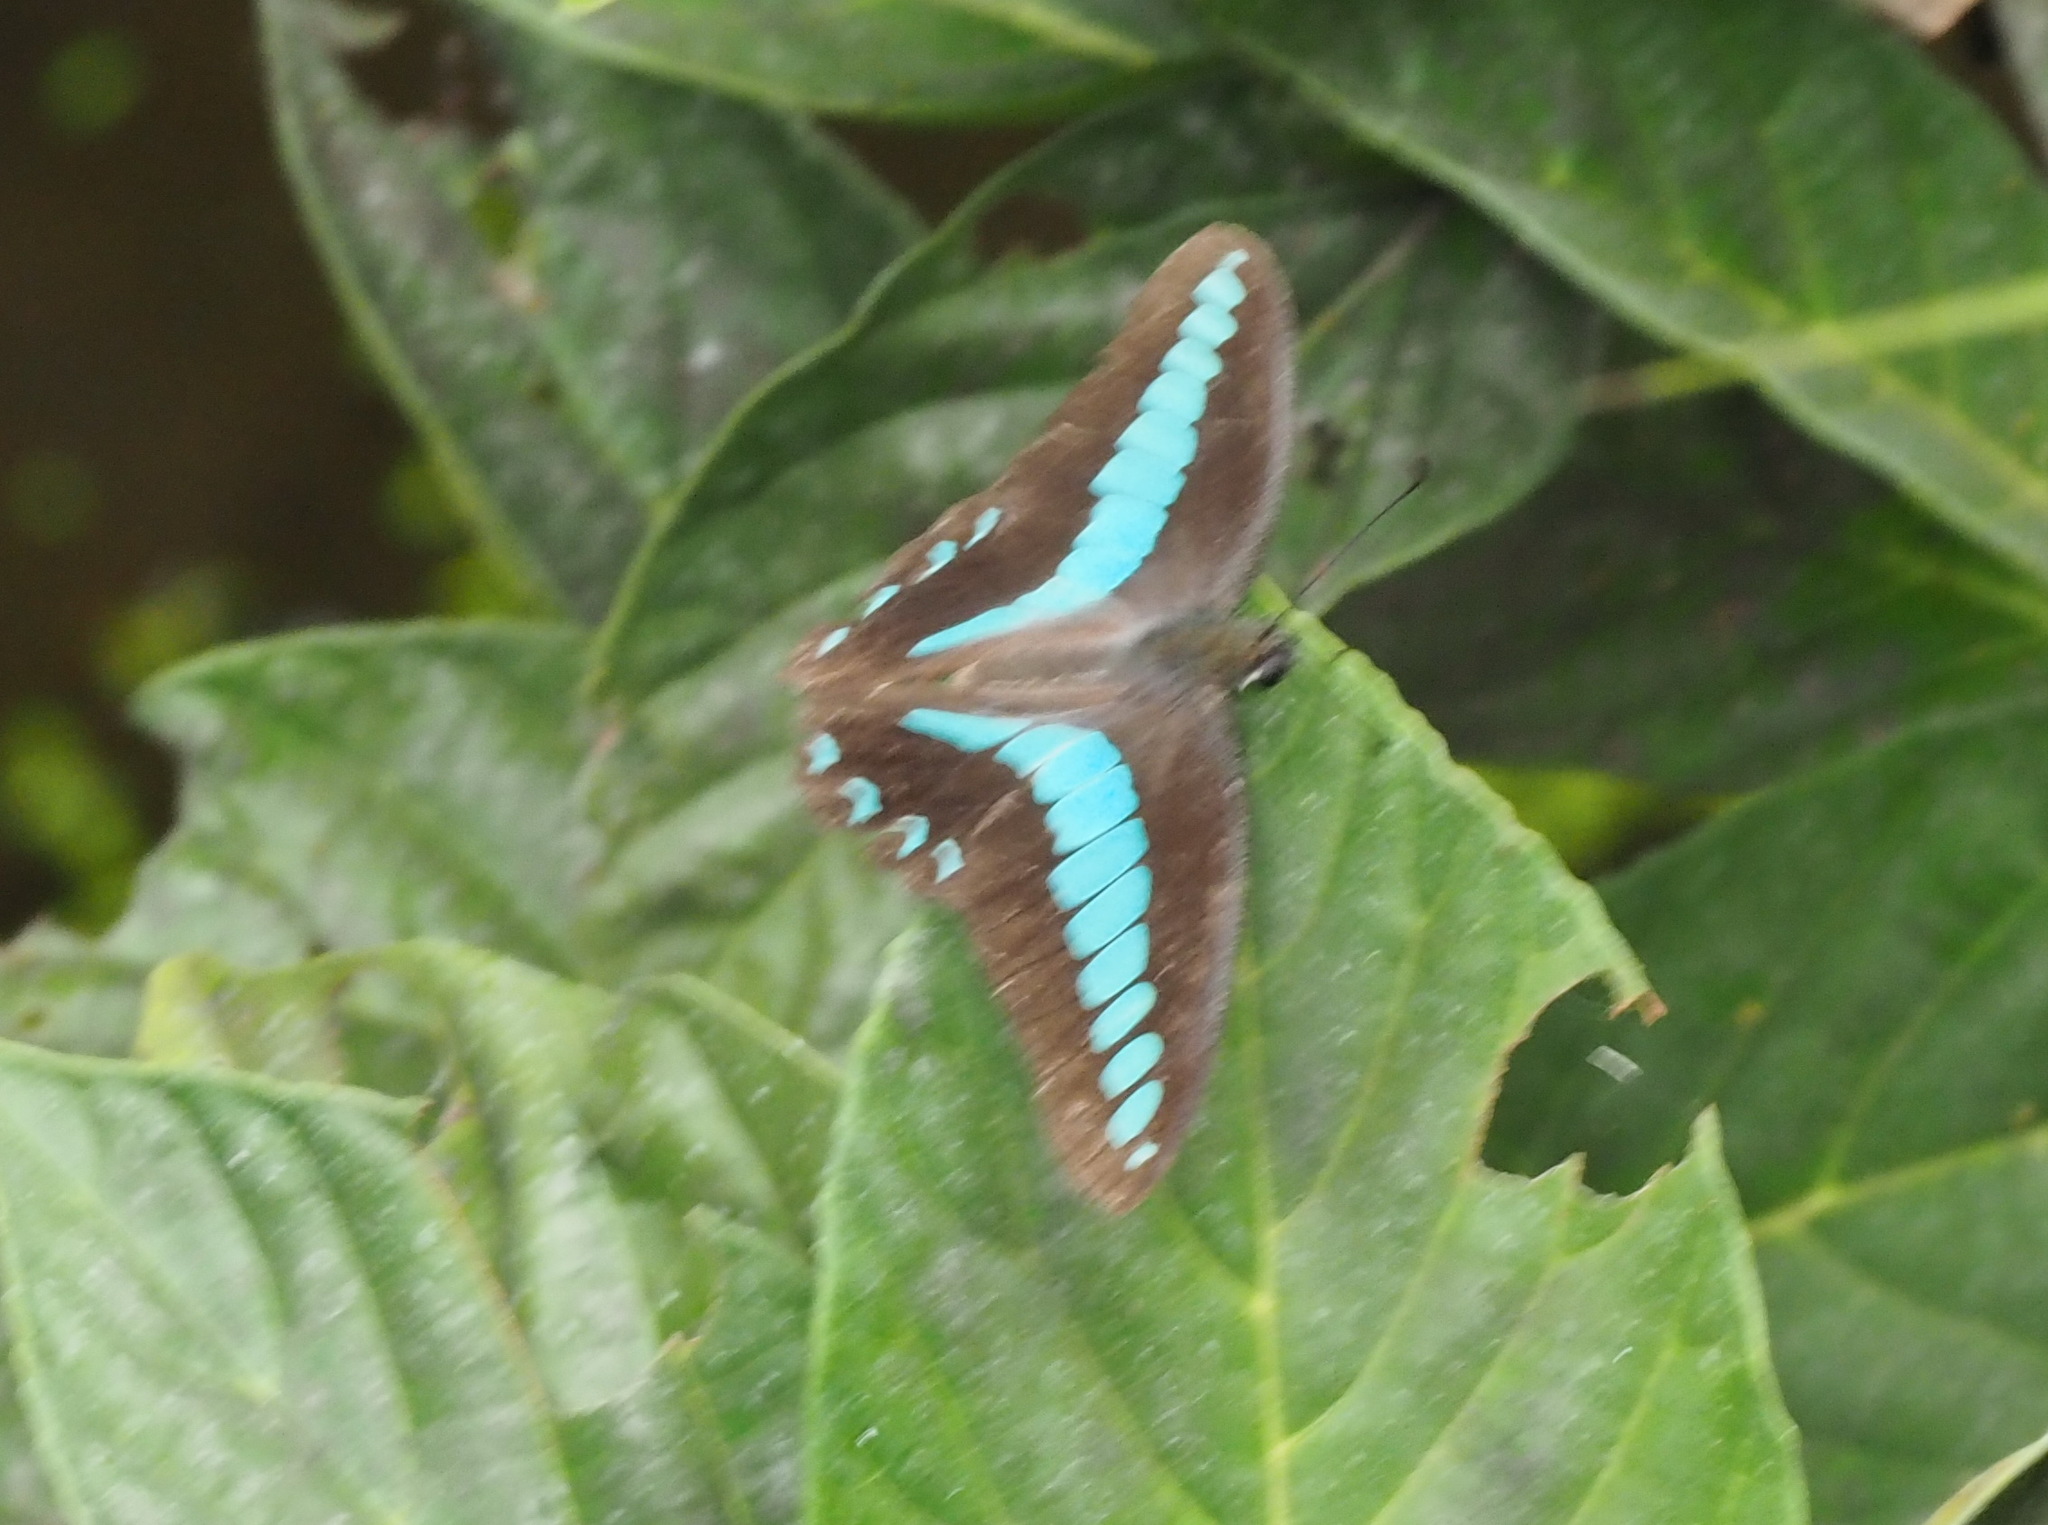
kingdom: Fungi
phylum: Ascomycota
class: Sordariomycetes
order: Microascales
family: Microascaceae
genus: Graphium
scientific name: Graphium sarpedon
